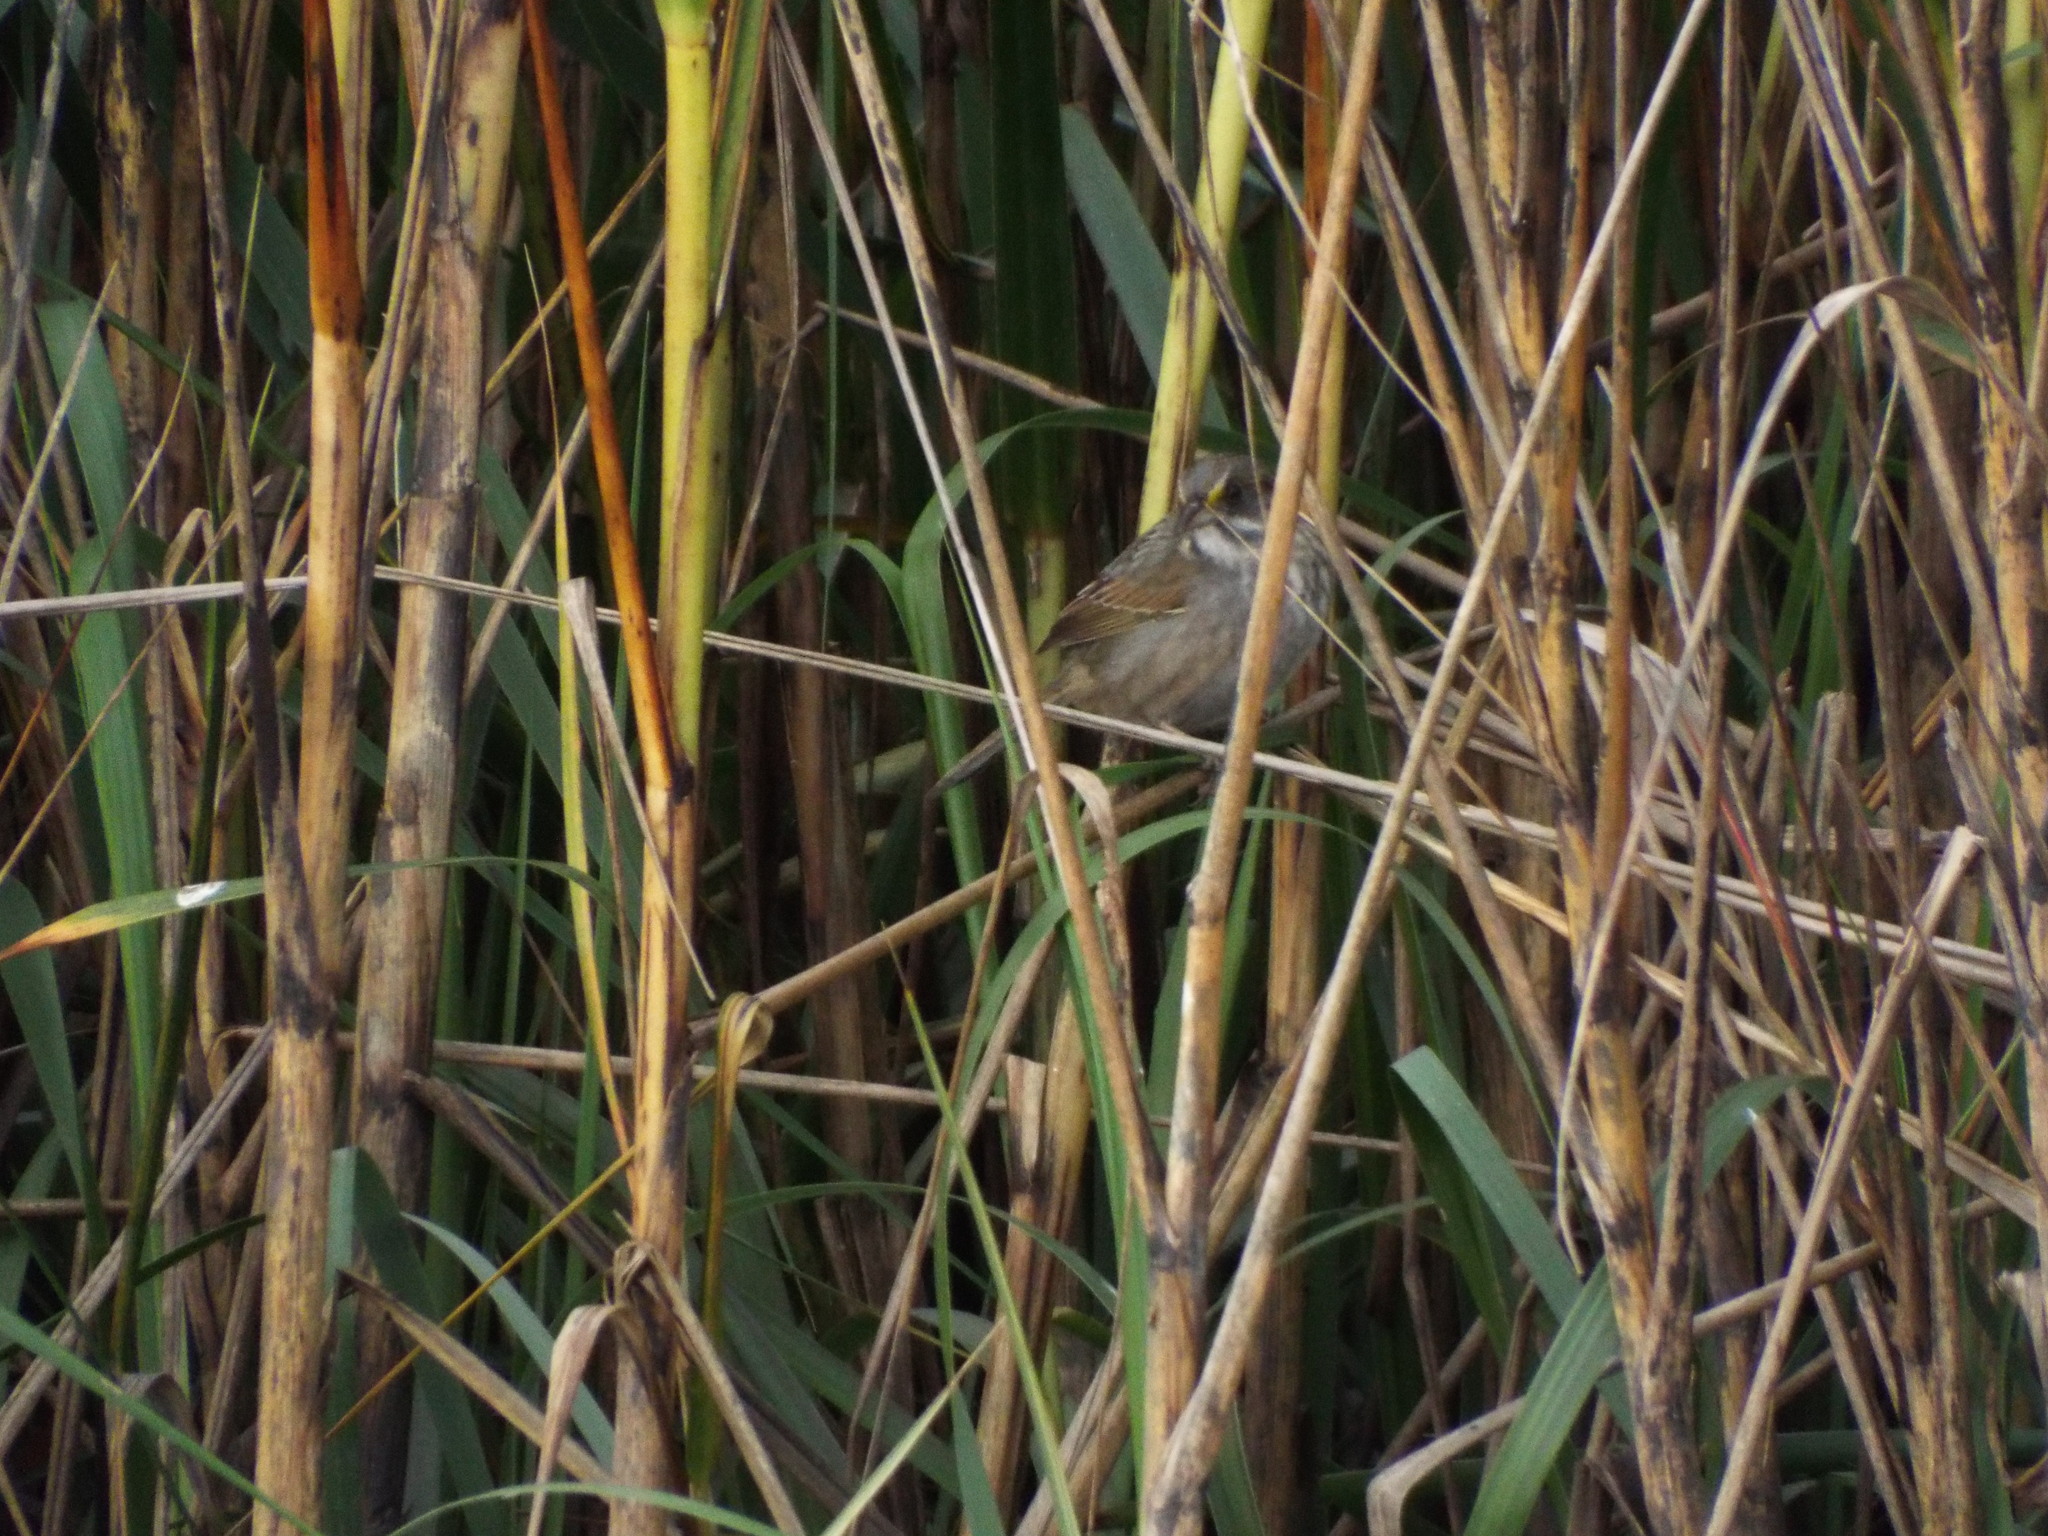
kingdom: Animalia
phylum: Chordata
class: Aves
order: Passeriformes
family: Passerellidae
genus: Ammospiza
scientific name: Ammospiza maritima
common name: Seaside sparrow
